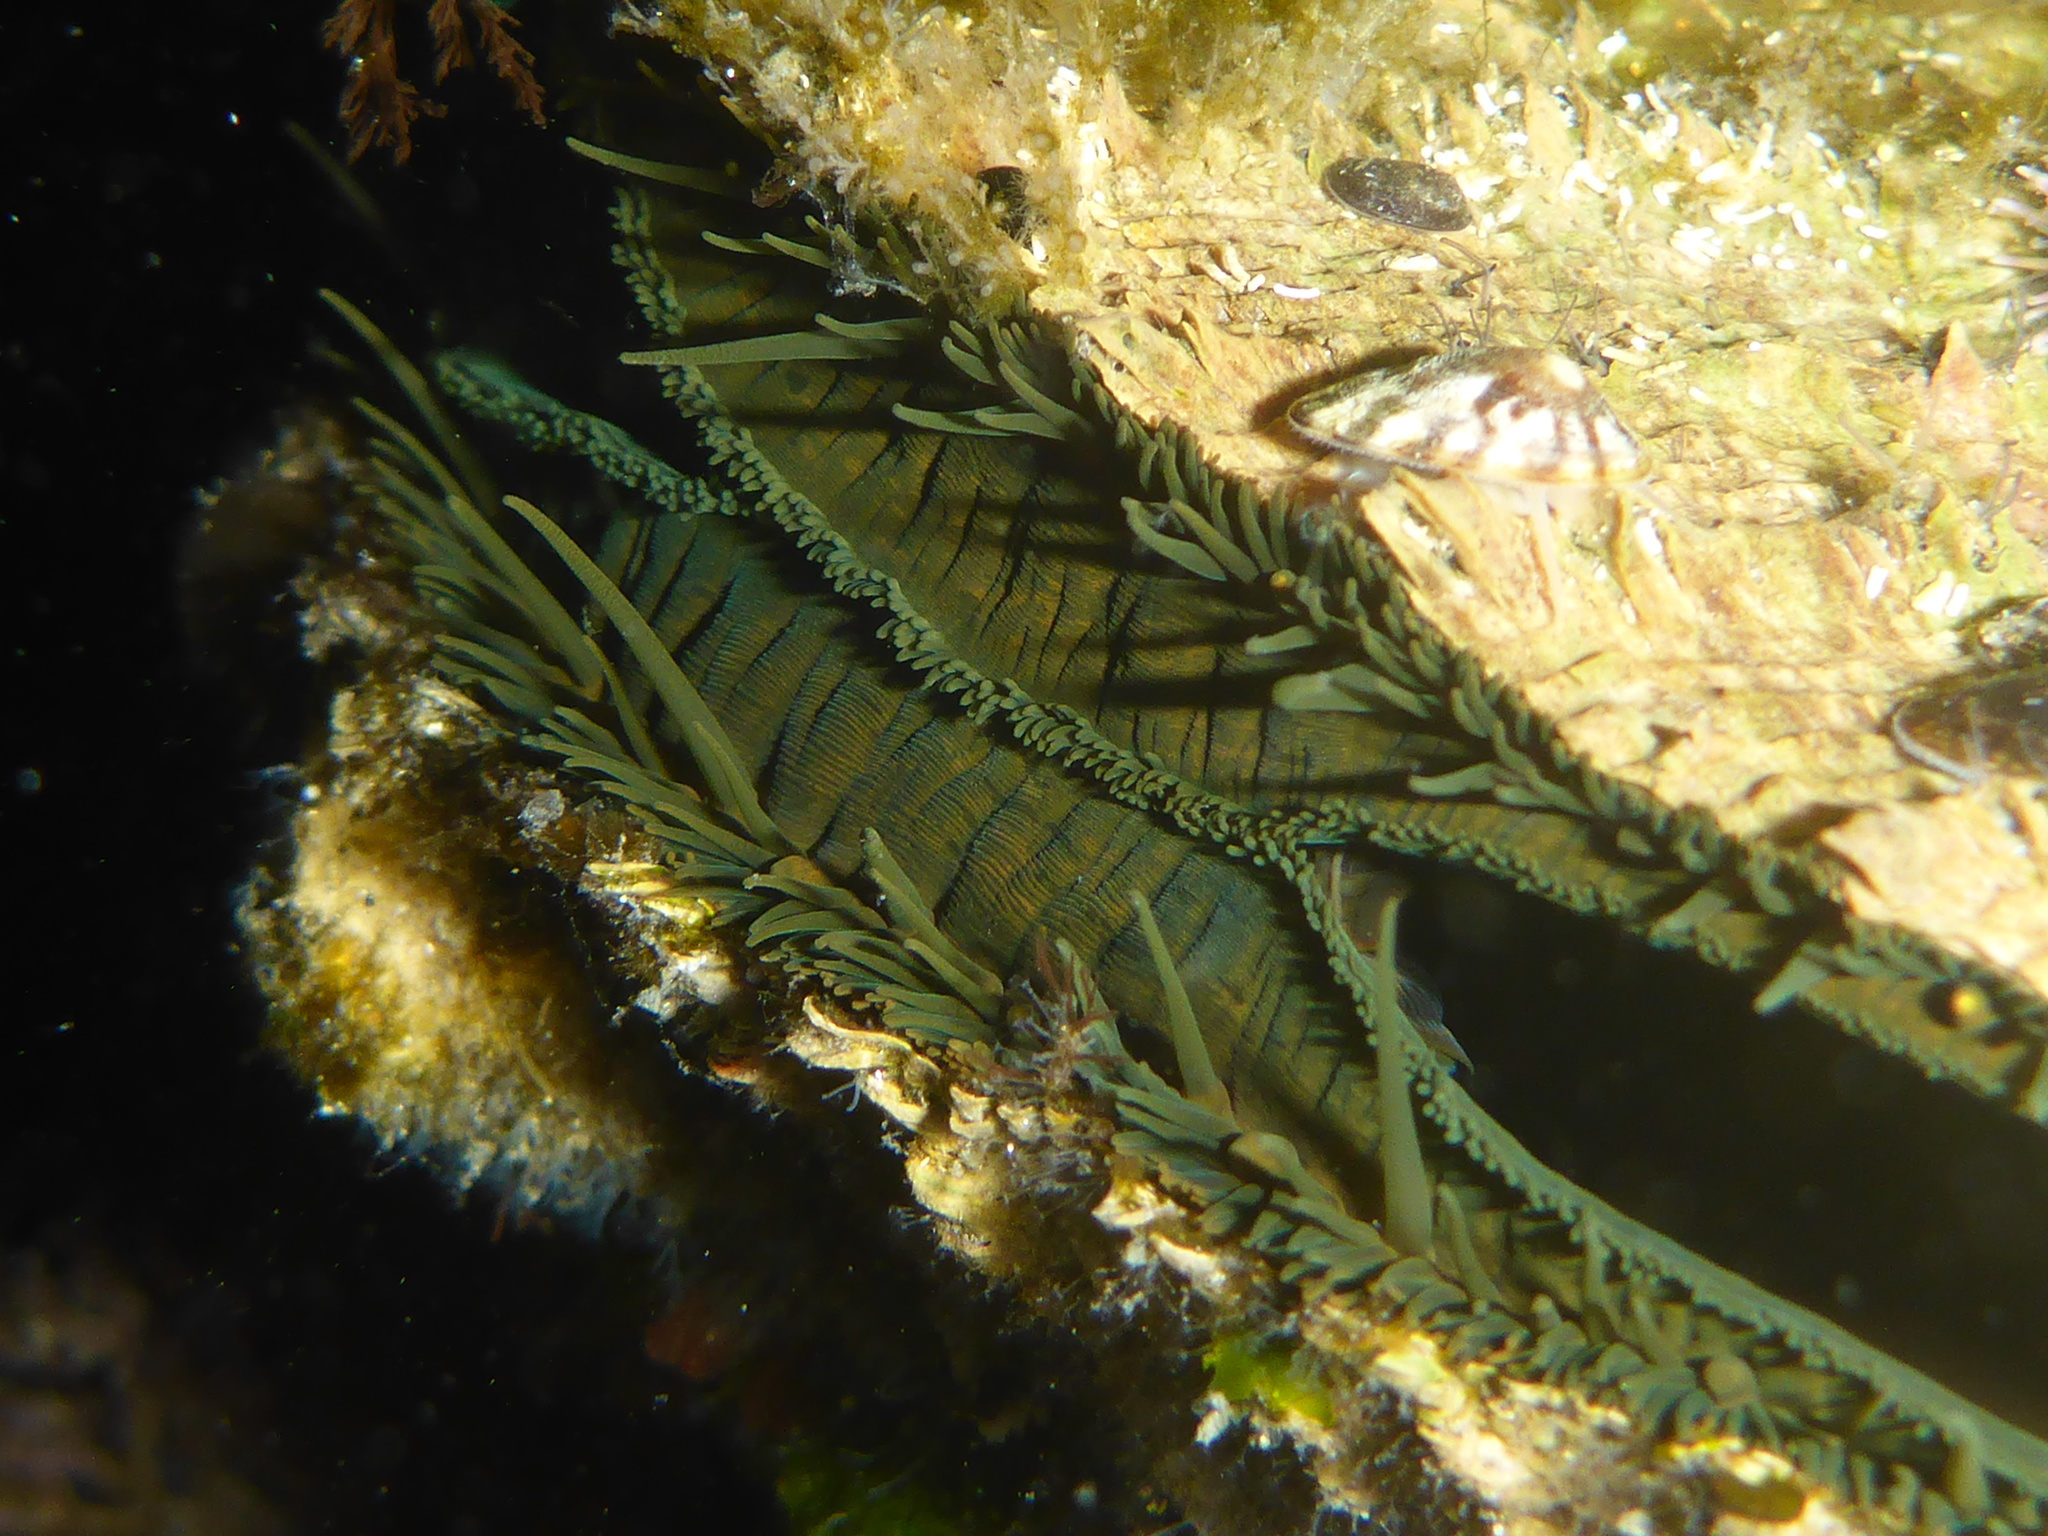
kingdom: Animalia
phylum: Mollusca
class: Bivalvia
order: Pectinida
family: Pectinidae
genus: Crassadoma
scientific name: Crassadoma gigantea
